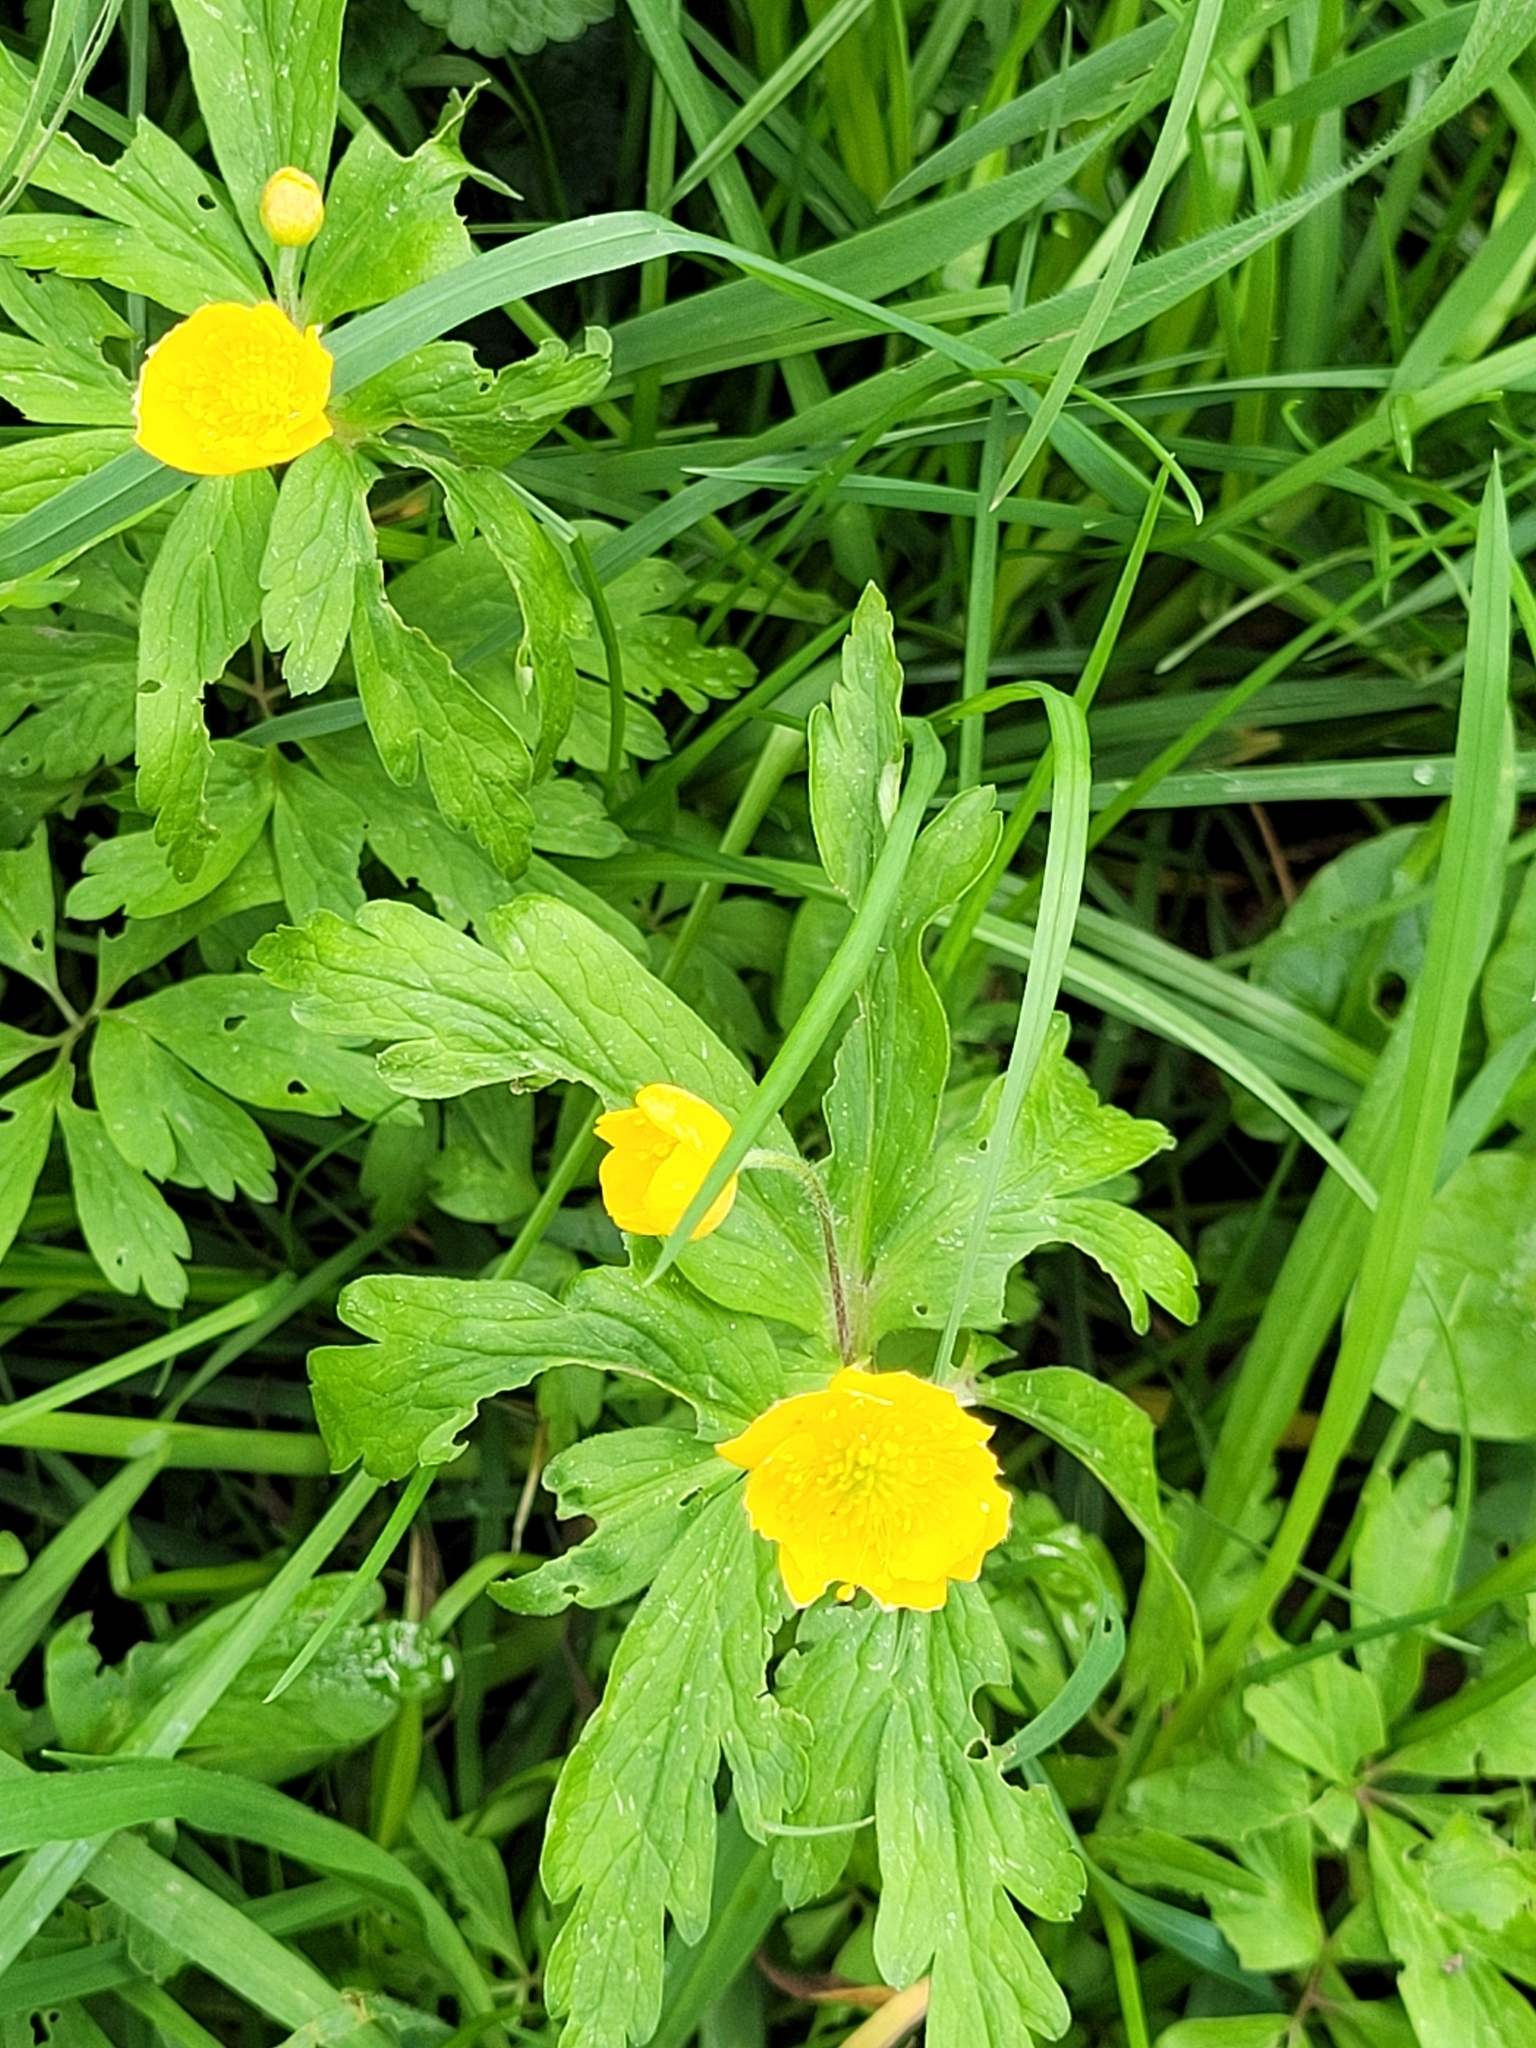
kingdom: Plantae
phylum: Tracheophyta
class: Magnoliopsida
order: Ranunculales
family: Ranunculaceae
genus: Anemone
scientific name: Anemone ranunculoides
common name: Yellow anemone
